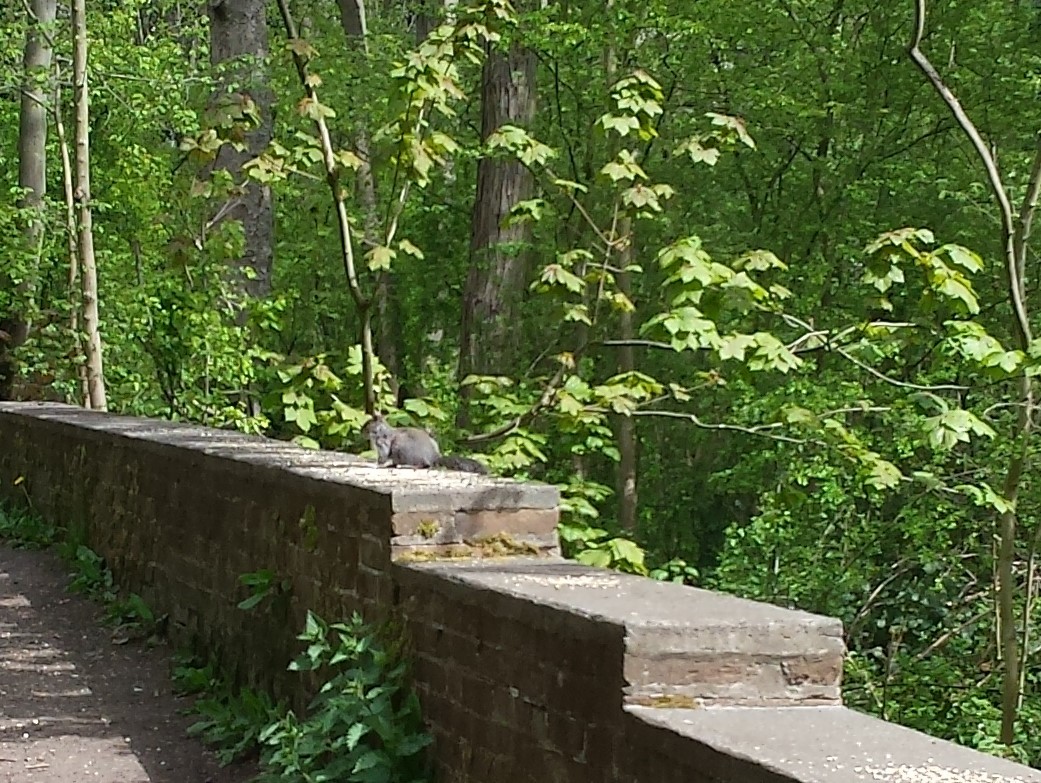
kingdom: Animalia
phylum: Chordata
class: Mammalia
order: Rodentia
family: Sciuridae
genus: Sciurus
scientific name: Sciurus carolinensis
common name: Eastern gray squirrel
